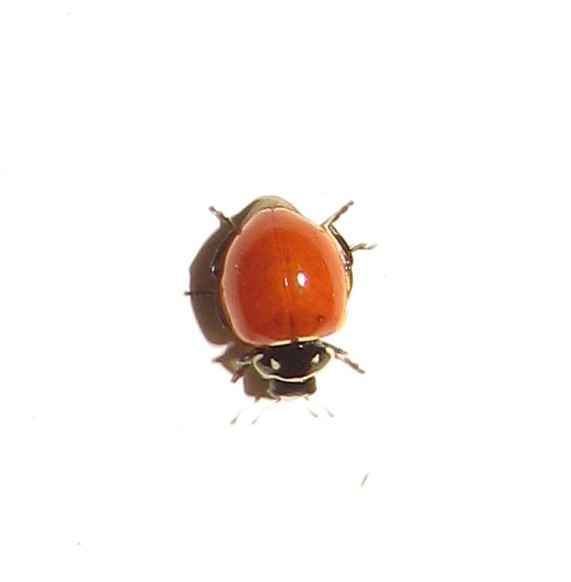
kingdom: Animalia
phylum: Arthropoda
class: Insecta
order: Coleoptera
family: Coccinellidae
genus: Cycloneda
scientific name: Cycloneda sanguinea
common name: Ladybird beetle
